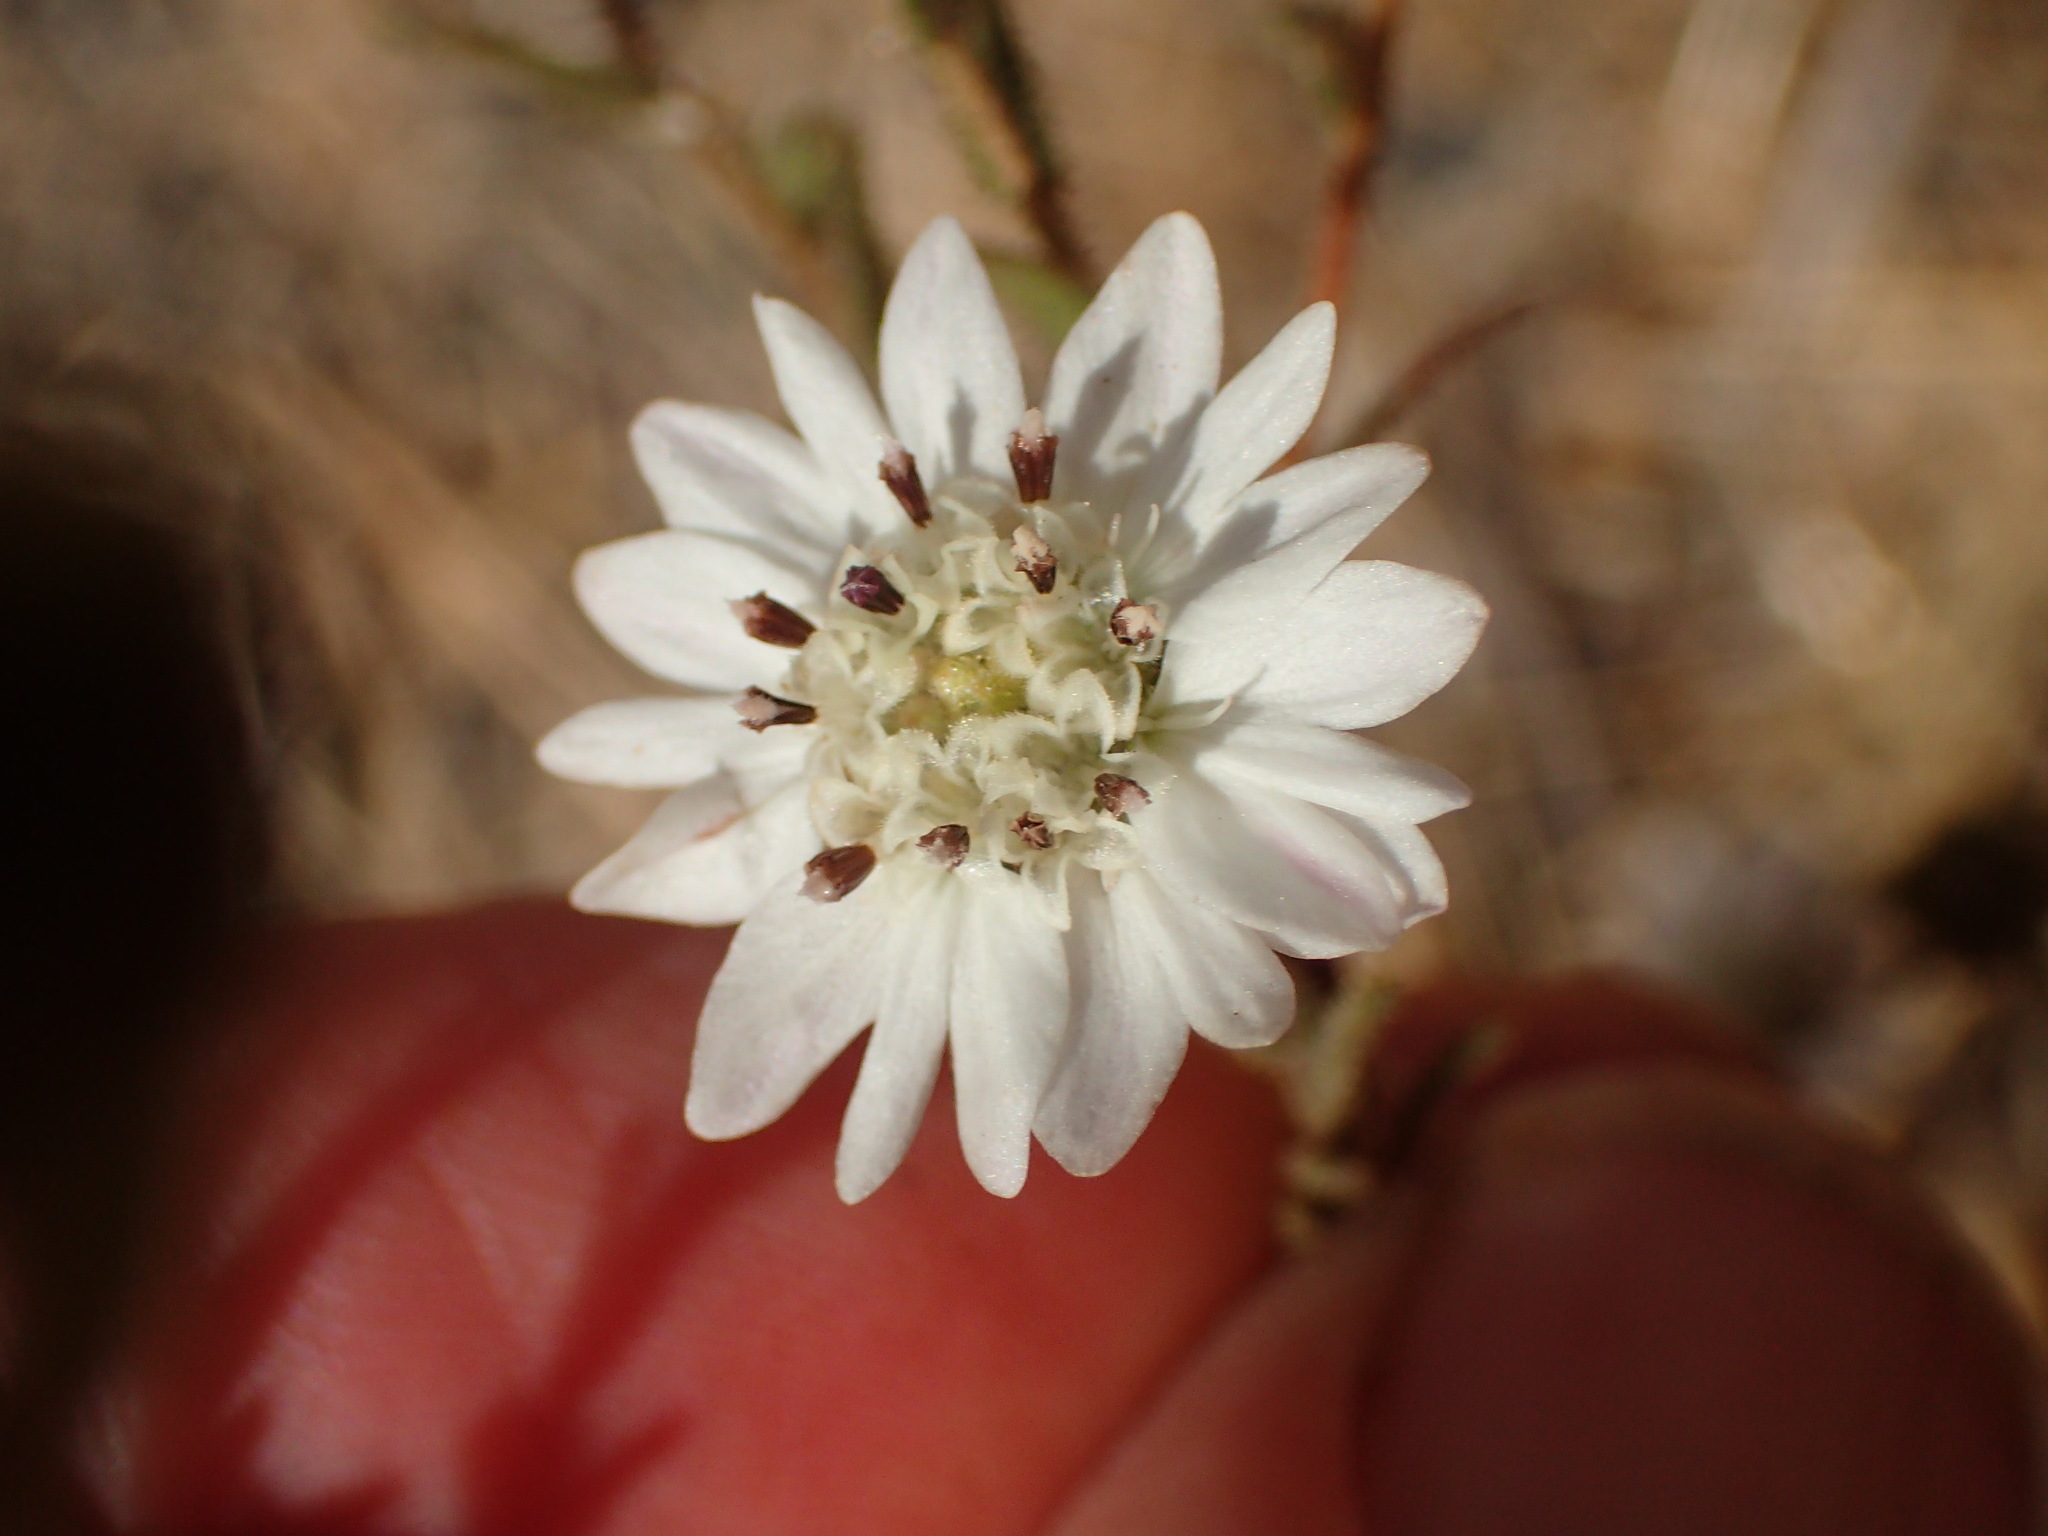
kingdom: Plantae
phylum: Tracheophyta
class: Magnoliopsida
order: Asterales
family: Asteraceae
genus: Hemizonia
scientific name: Hemizonia congesta
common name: Hayfield tarweed
